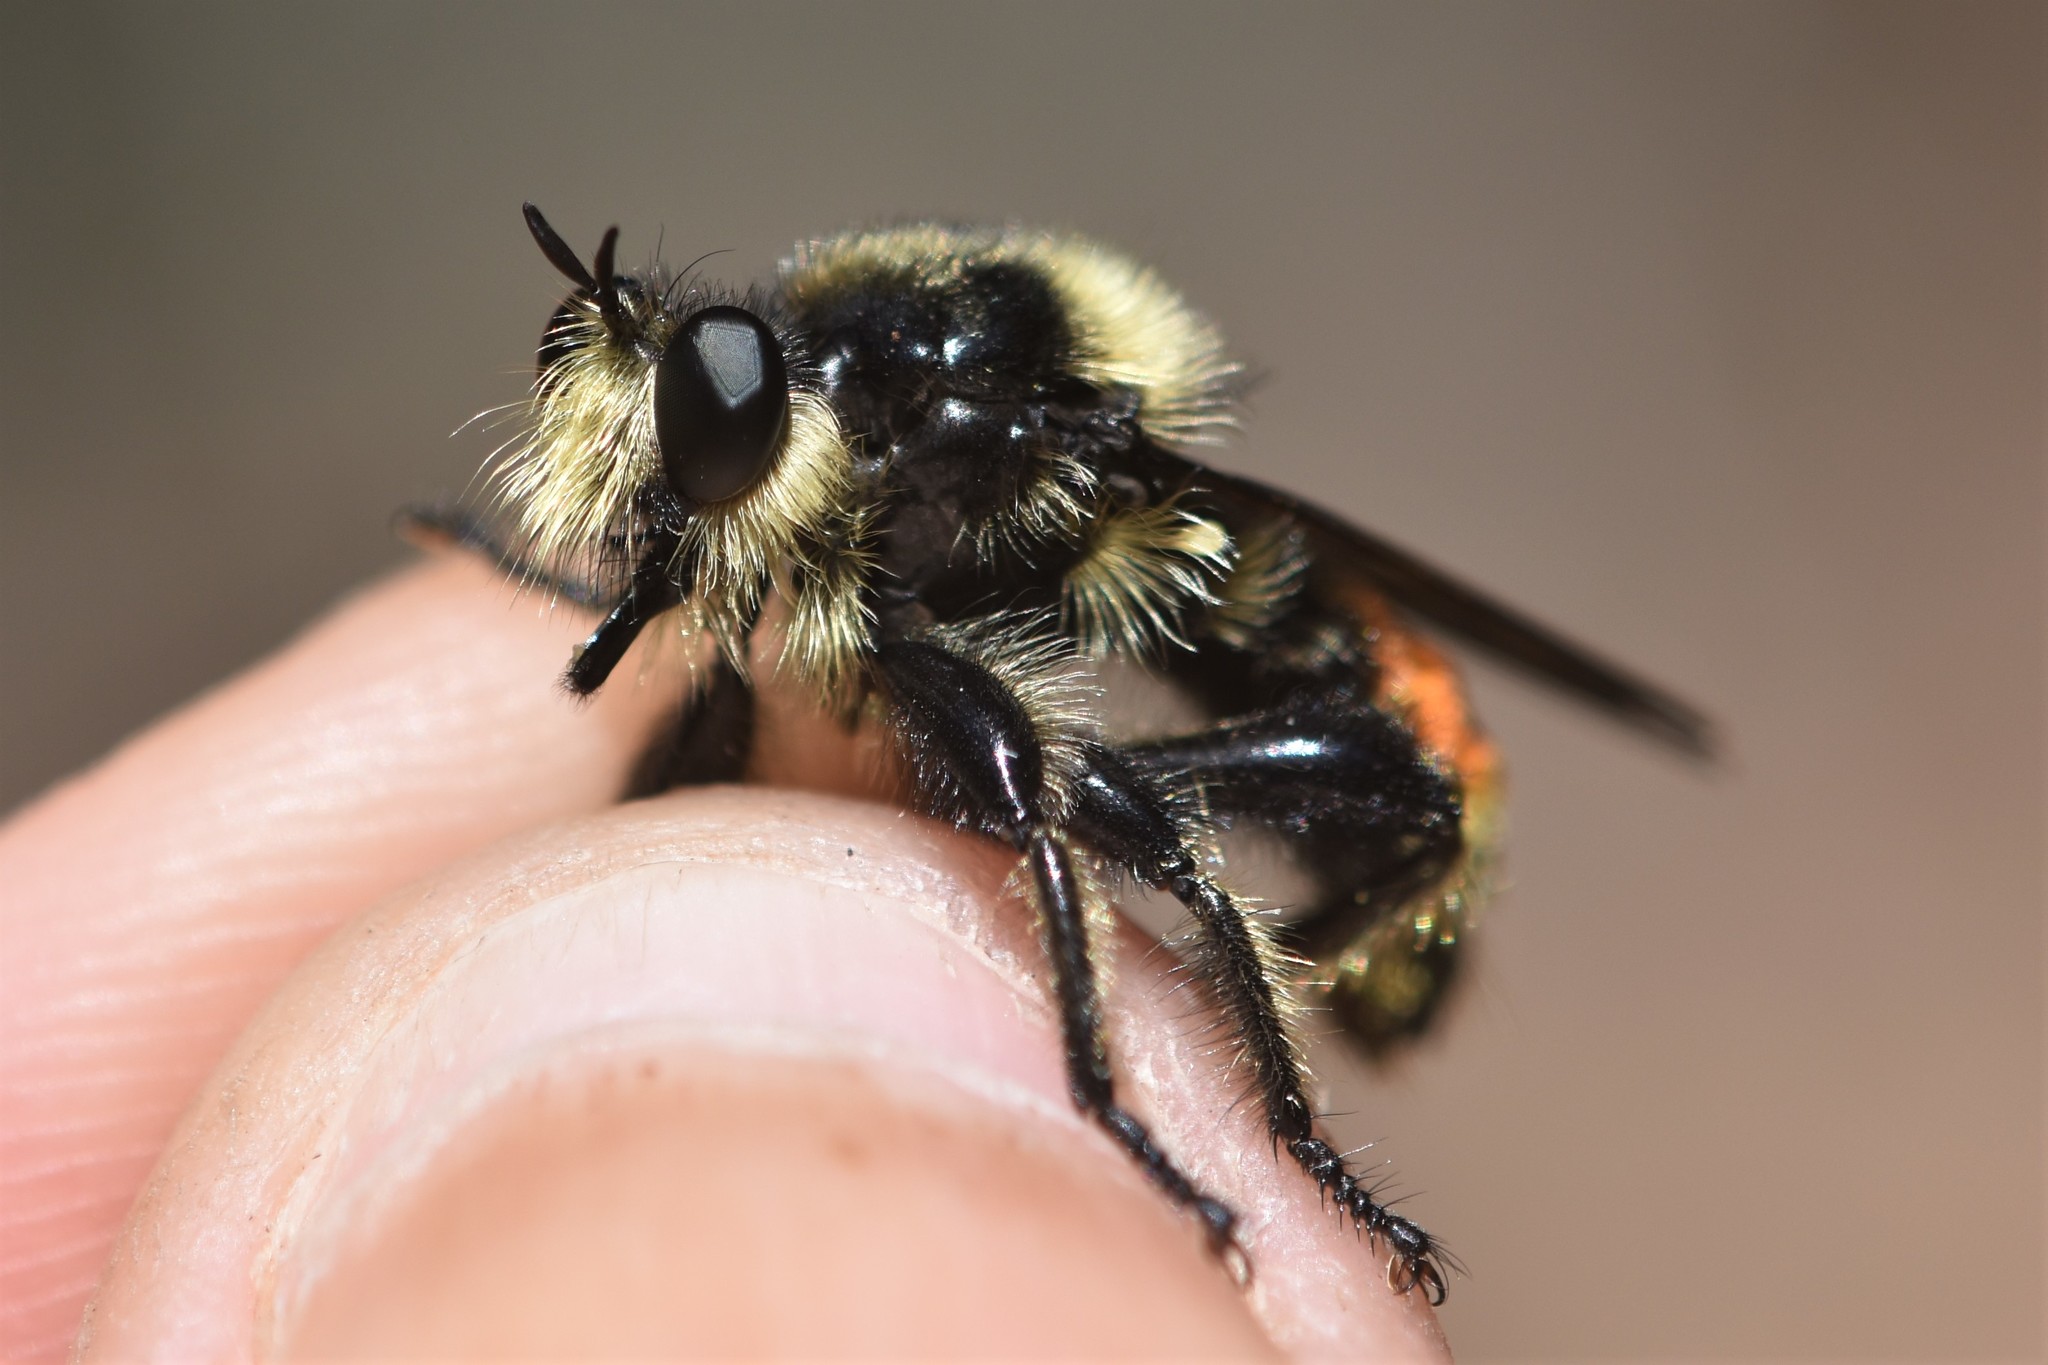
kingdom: Animalia
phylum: Arthropoda
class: Insecta
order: Diptera
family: Asilidae
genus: Laphria
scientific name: Laphria fernaldi
